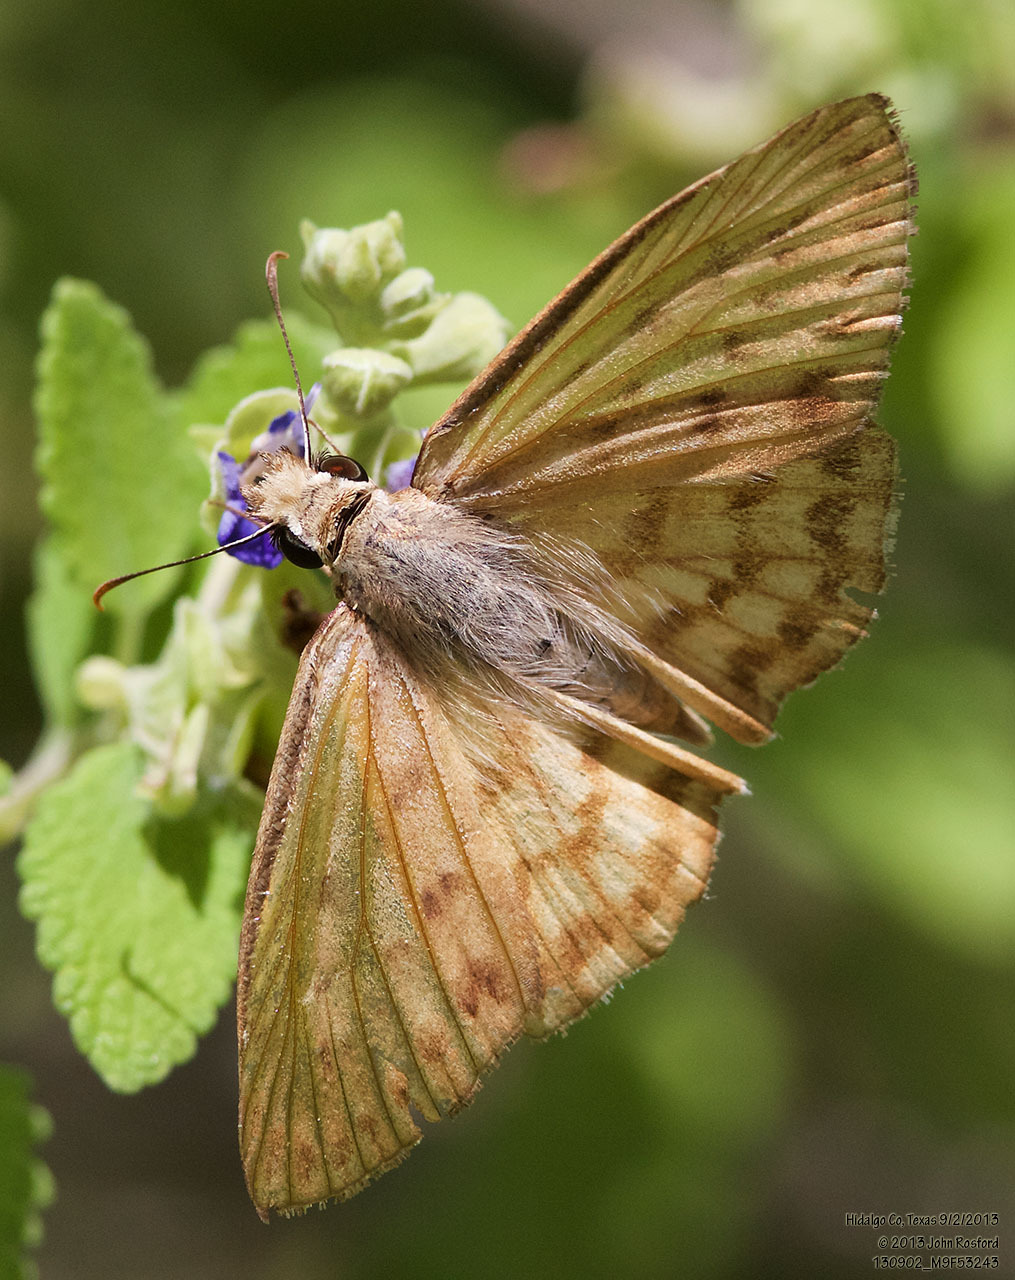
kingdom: Animalia
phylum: Arthropoda
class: Insecta
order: Lepidoptera
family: Hesperiidae
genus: Timochares
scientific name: Timochares ruptifasciata
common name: Brown-banded skipper
